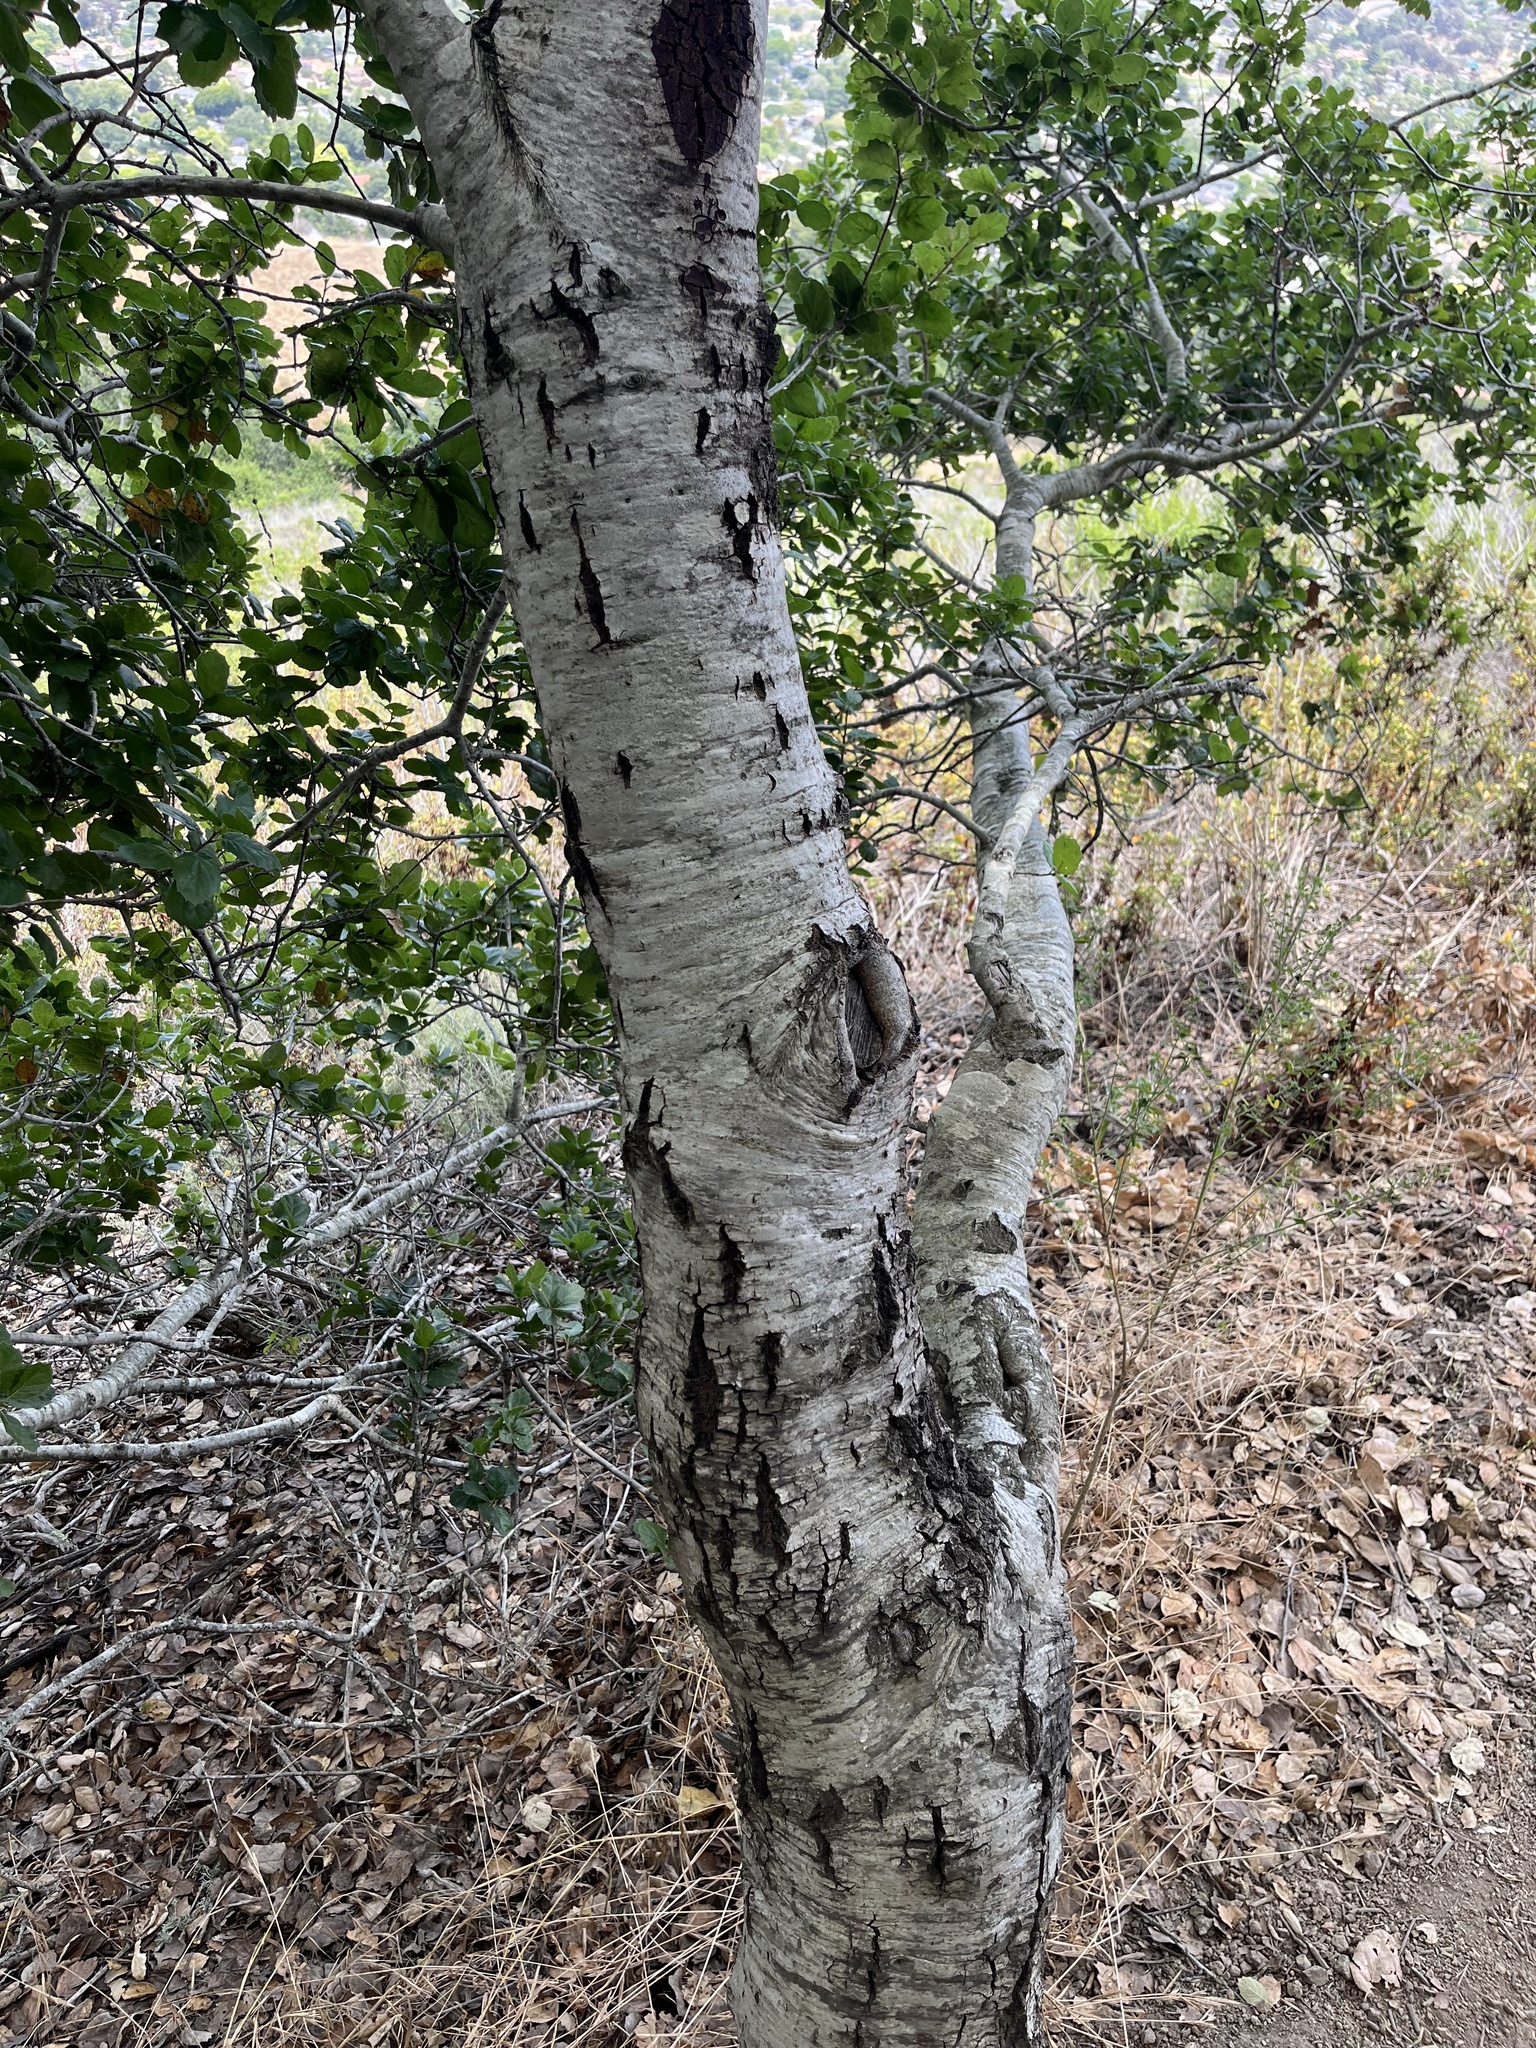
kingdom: Plantae
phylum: Tracheophyta
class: Magnoliopsida
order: Fagales
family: Fagaceae
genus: Quercus
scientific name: Quercus agrifolia
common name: California live oak
